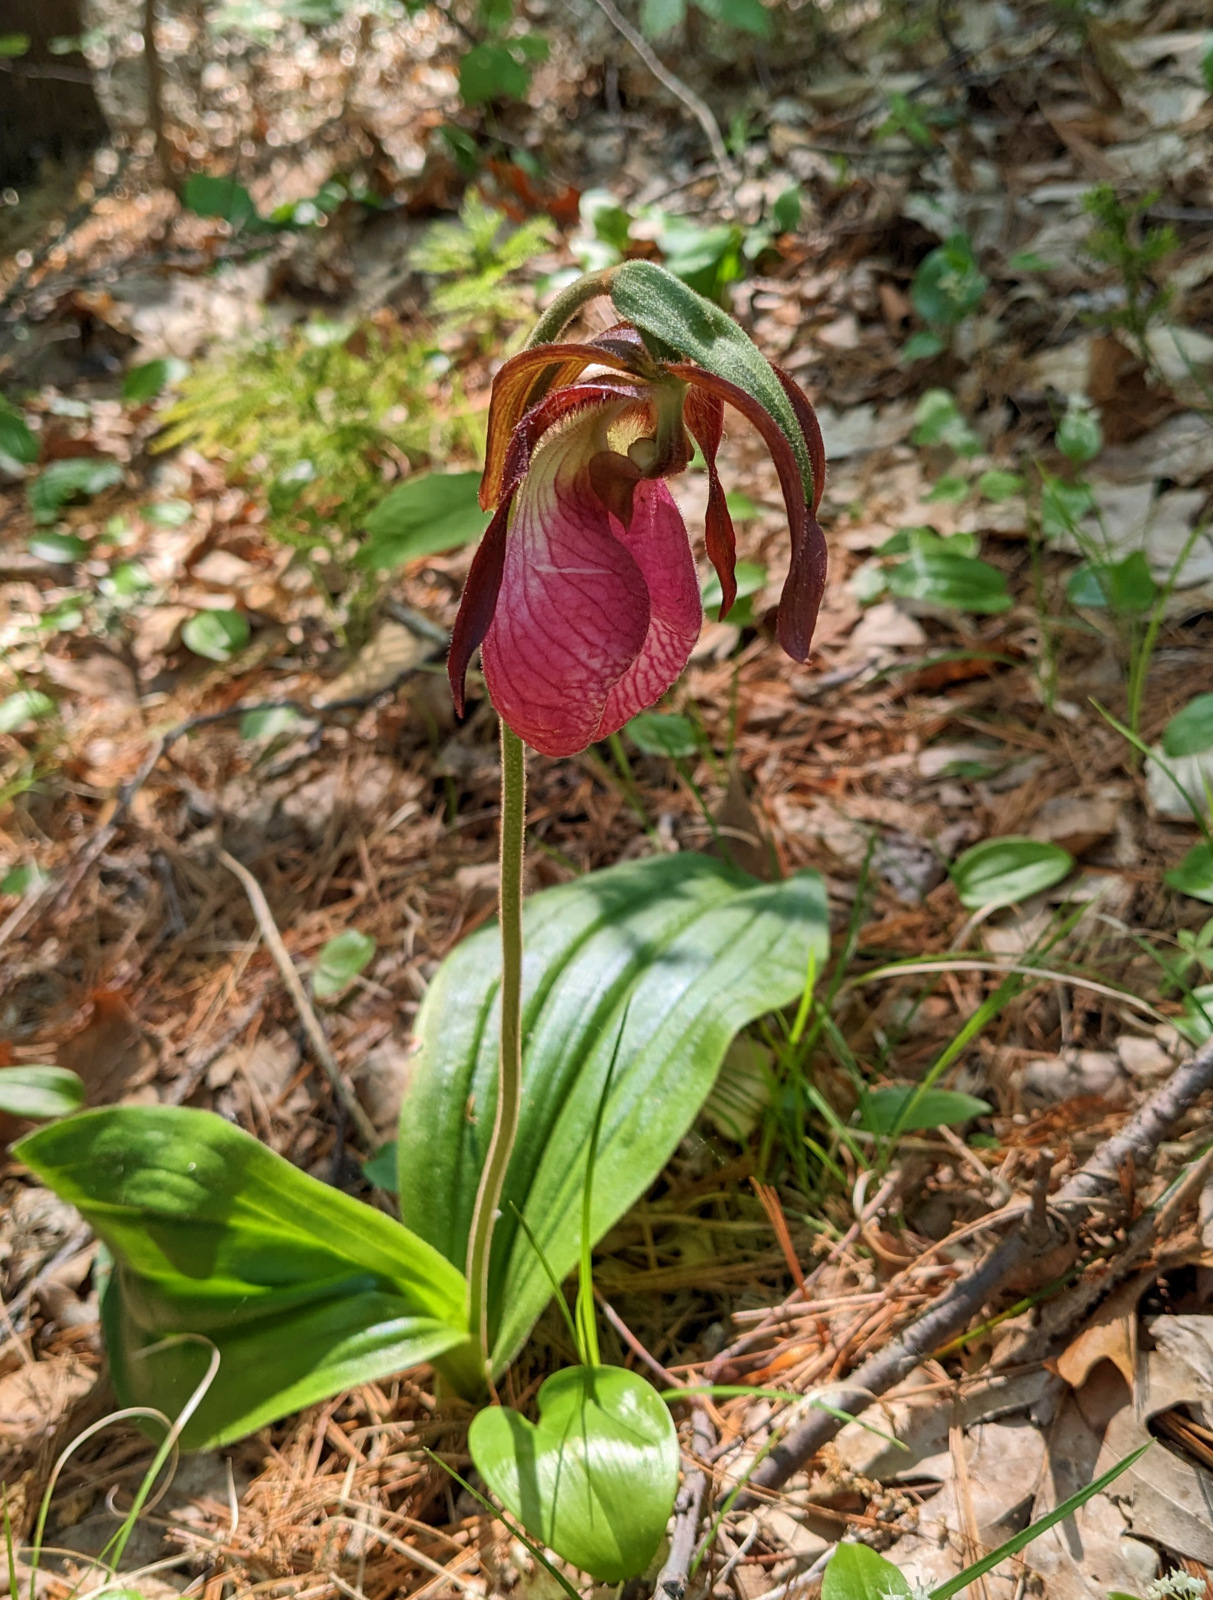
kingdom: Plantae
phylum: Tracheophyta
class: Liliopsida
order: Asparagales
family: Orchidaceae
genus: Cypripedium
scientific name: Cypripedium acaule
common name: Pink lady's-slipper
